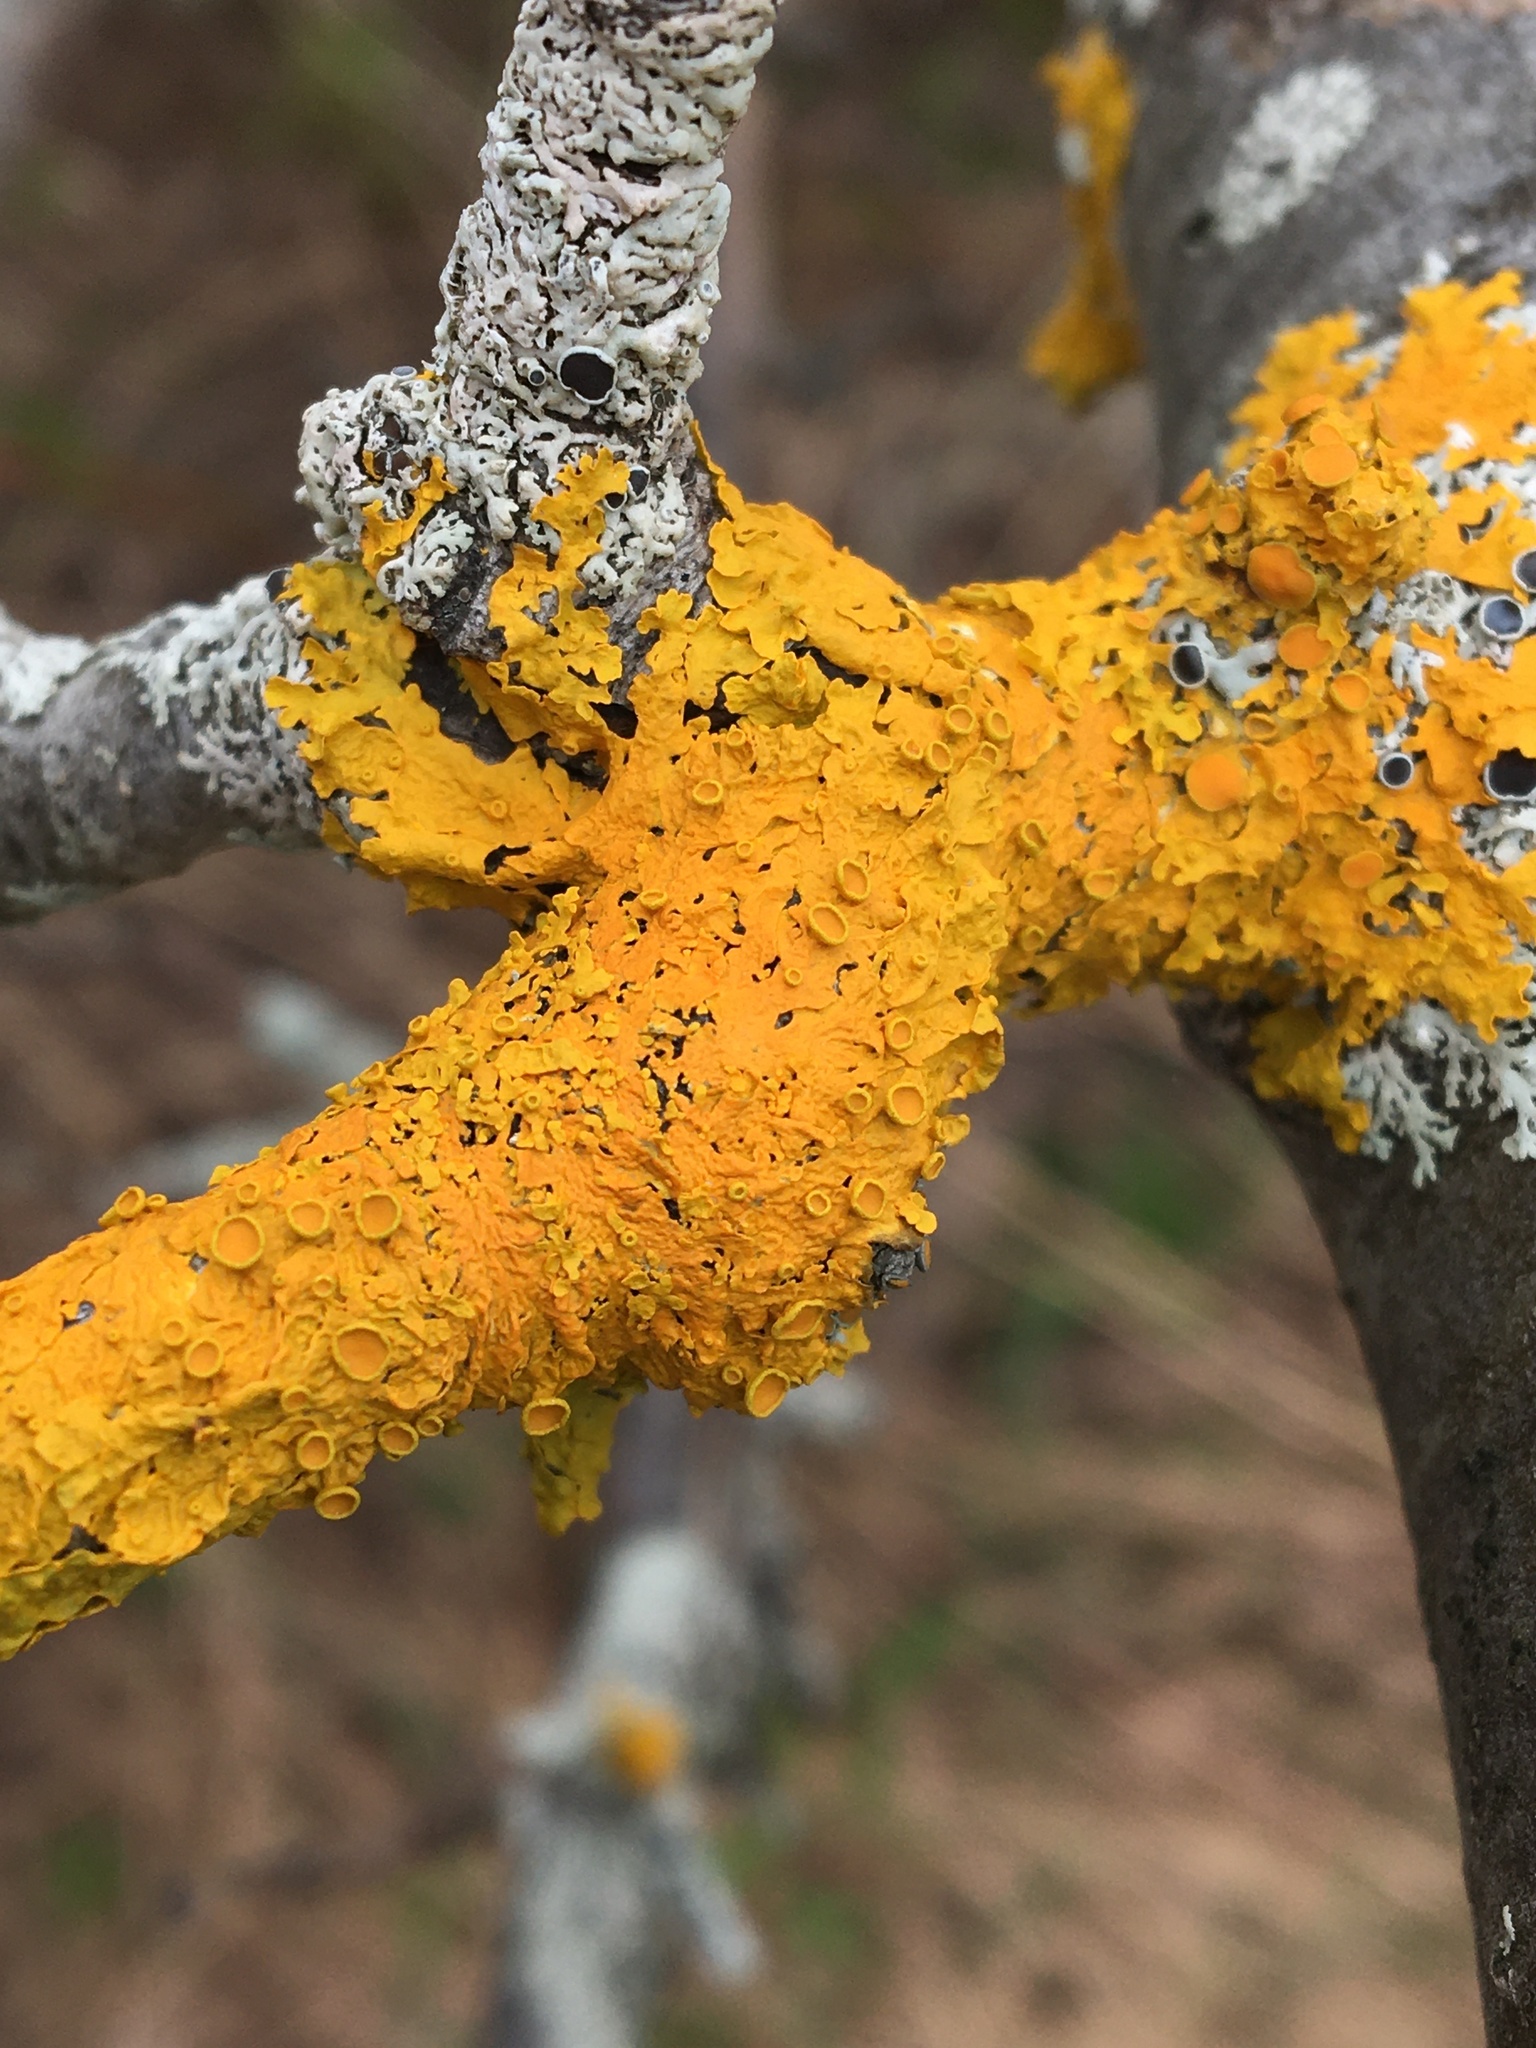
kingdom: Fungi
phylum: Ascomycota
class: Lecanoromycetes
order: Teloschistales
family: Teloschistaceae
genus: Xanthoria
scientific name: Xanthoria parietina
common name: Common orange lichen
